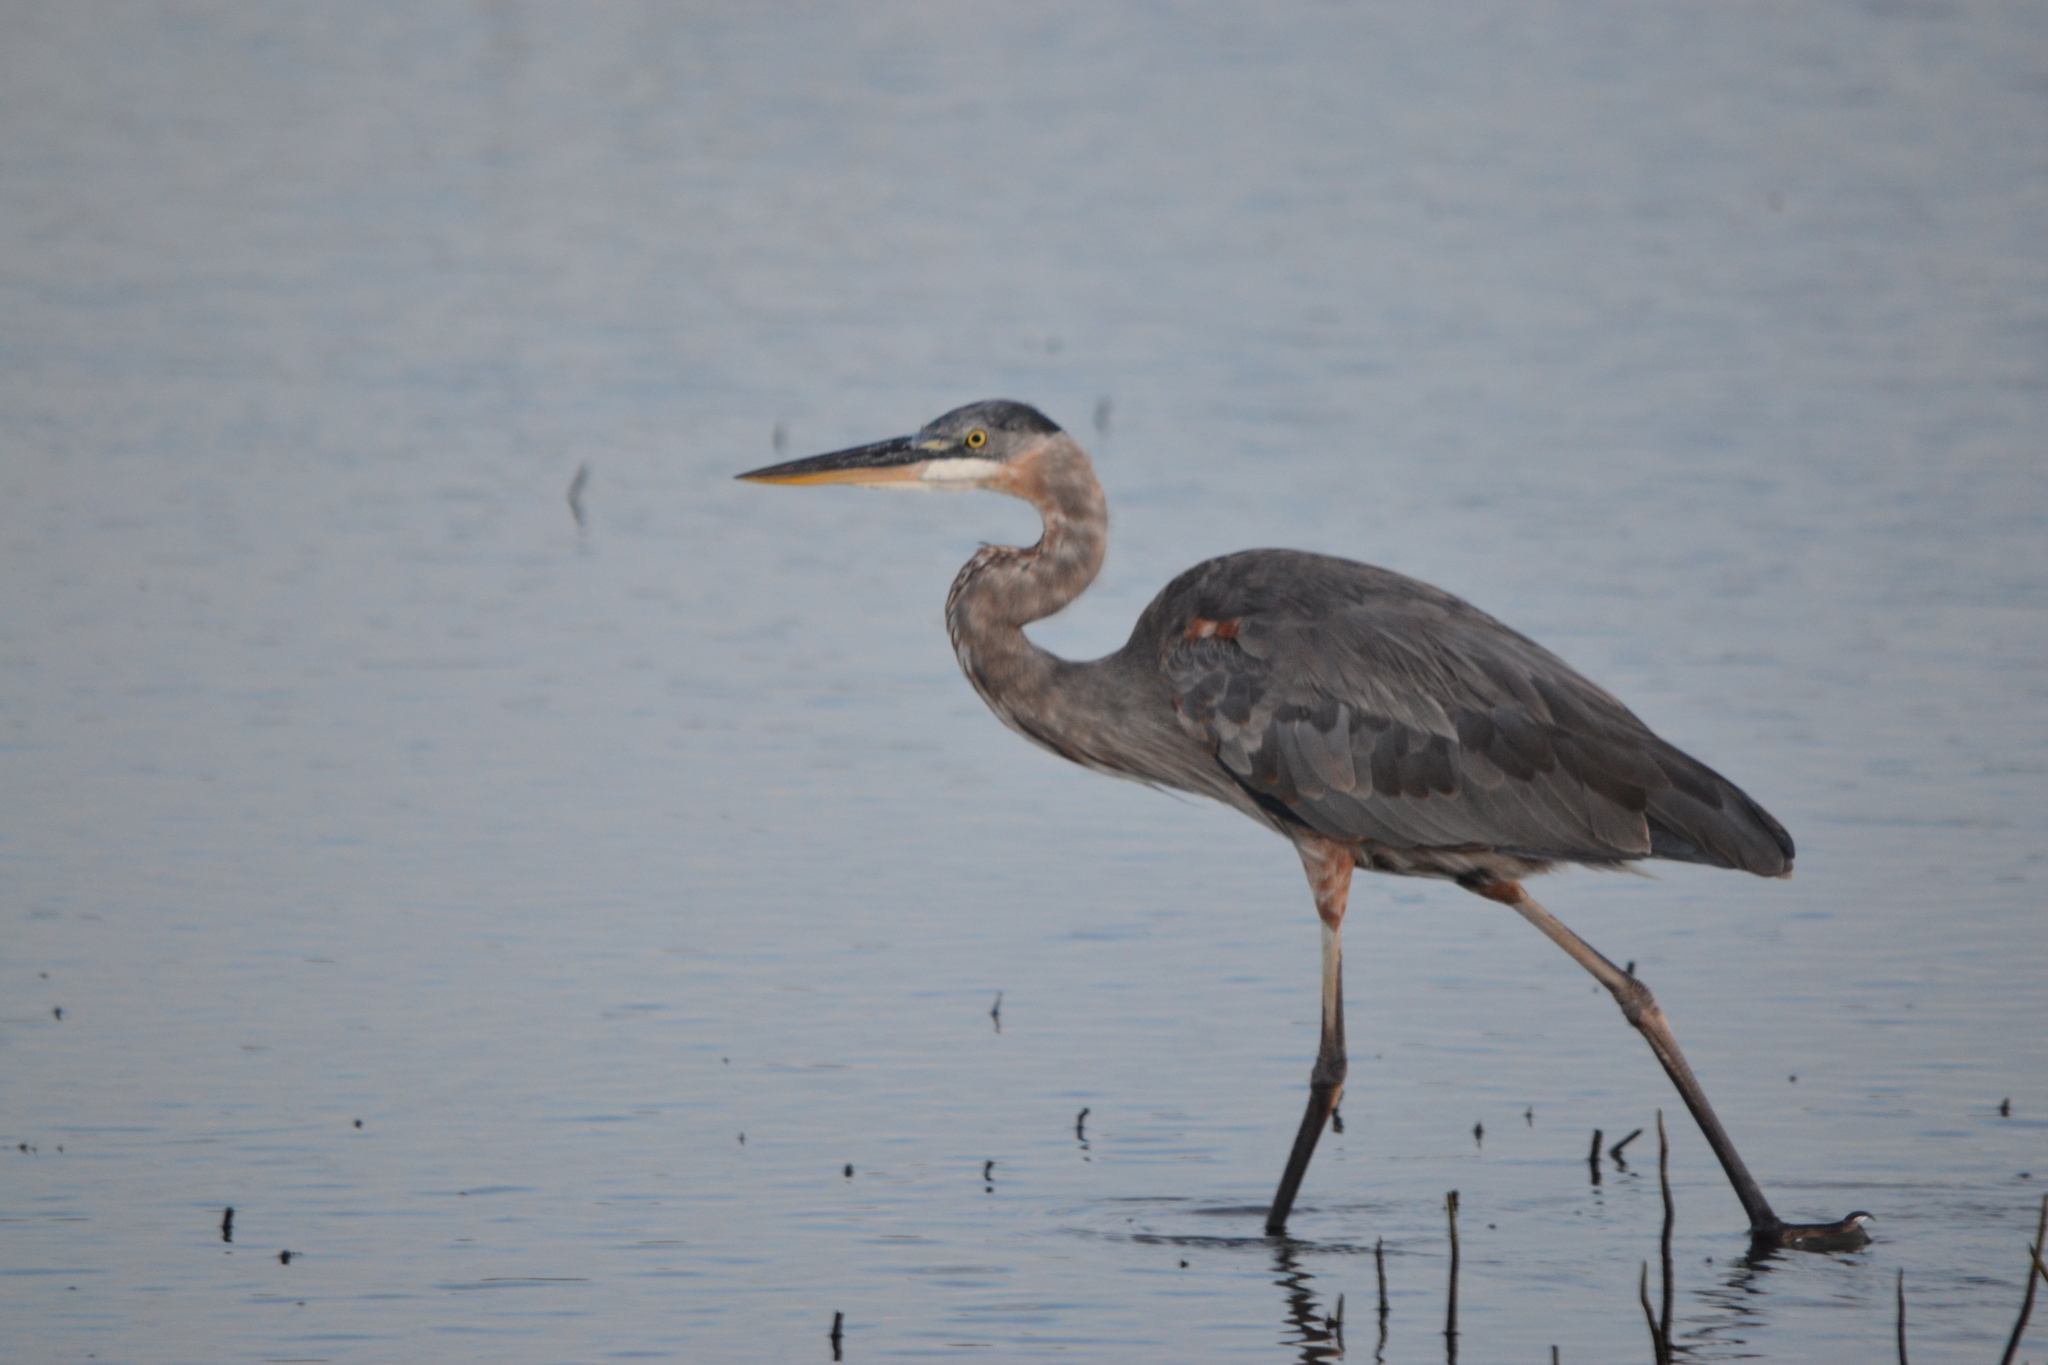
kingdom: Animalia
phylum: Chordata
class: Aves
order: Pelecaniformes
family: Ardeidae
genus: Ardea
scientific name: Ardea herodias
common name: Great blue heron
